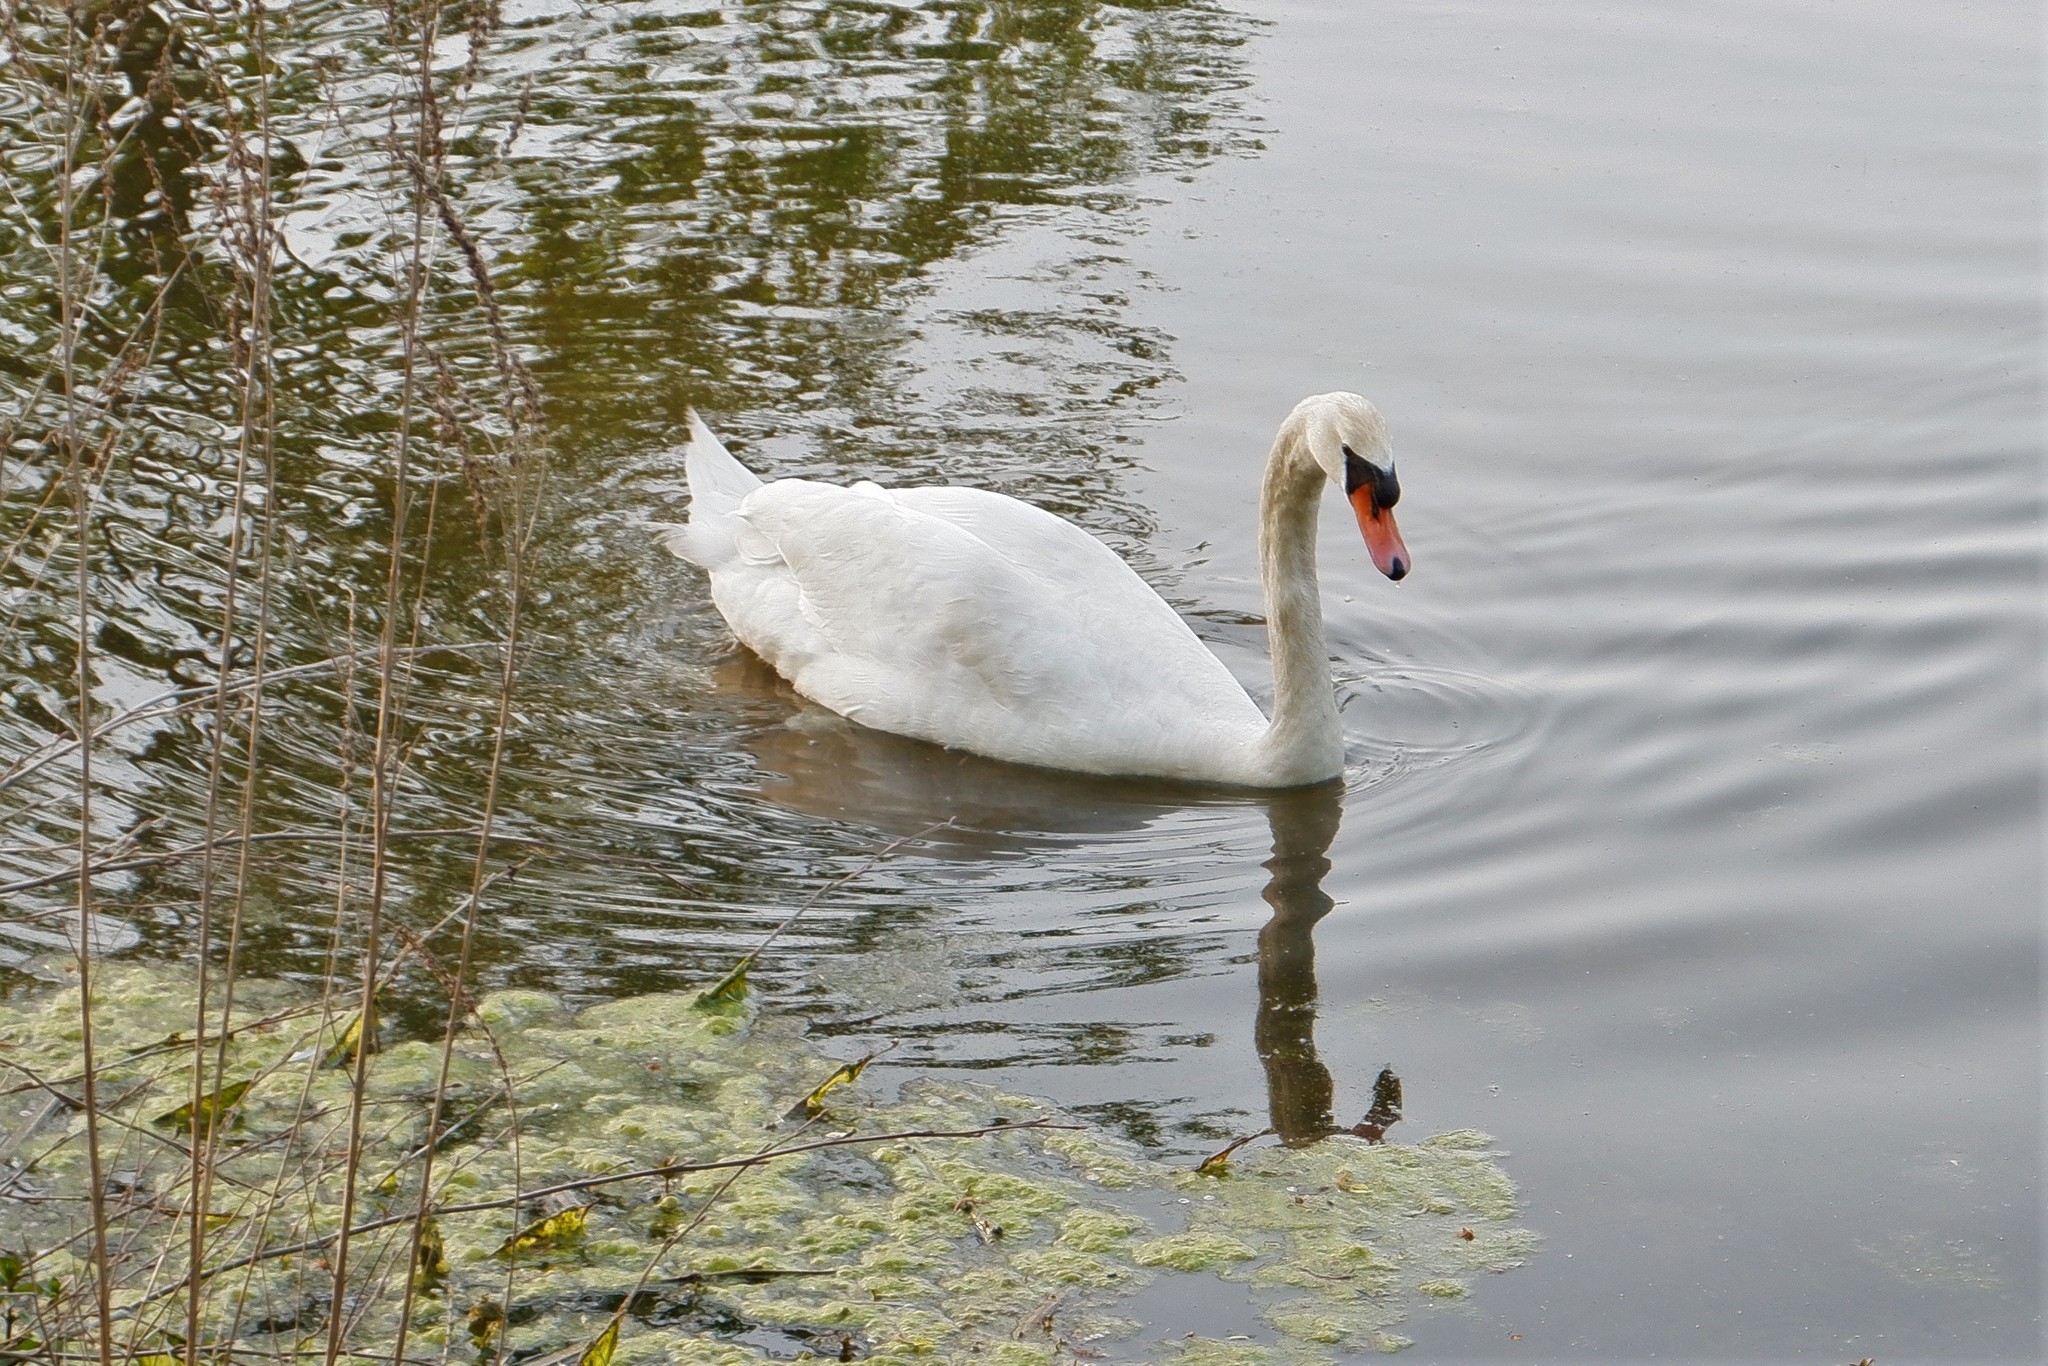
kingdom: Animalia
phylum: Chordata
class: Aves
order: Anseriformes
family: Anatidae
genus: Cygnus
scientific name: Cygnus olor
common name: Mute swan
